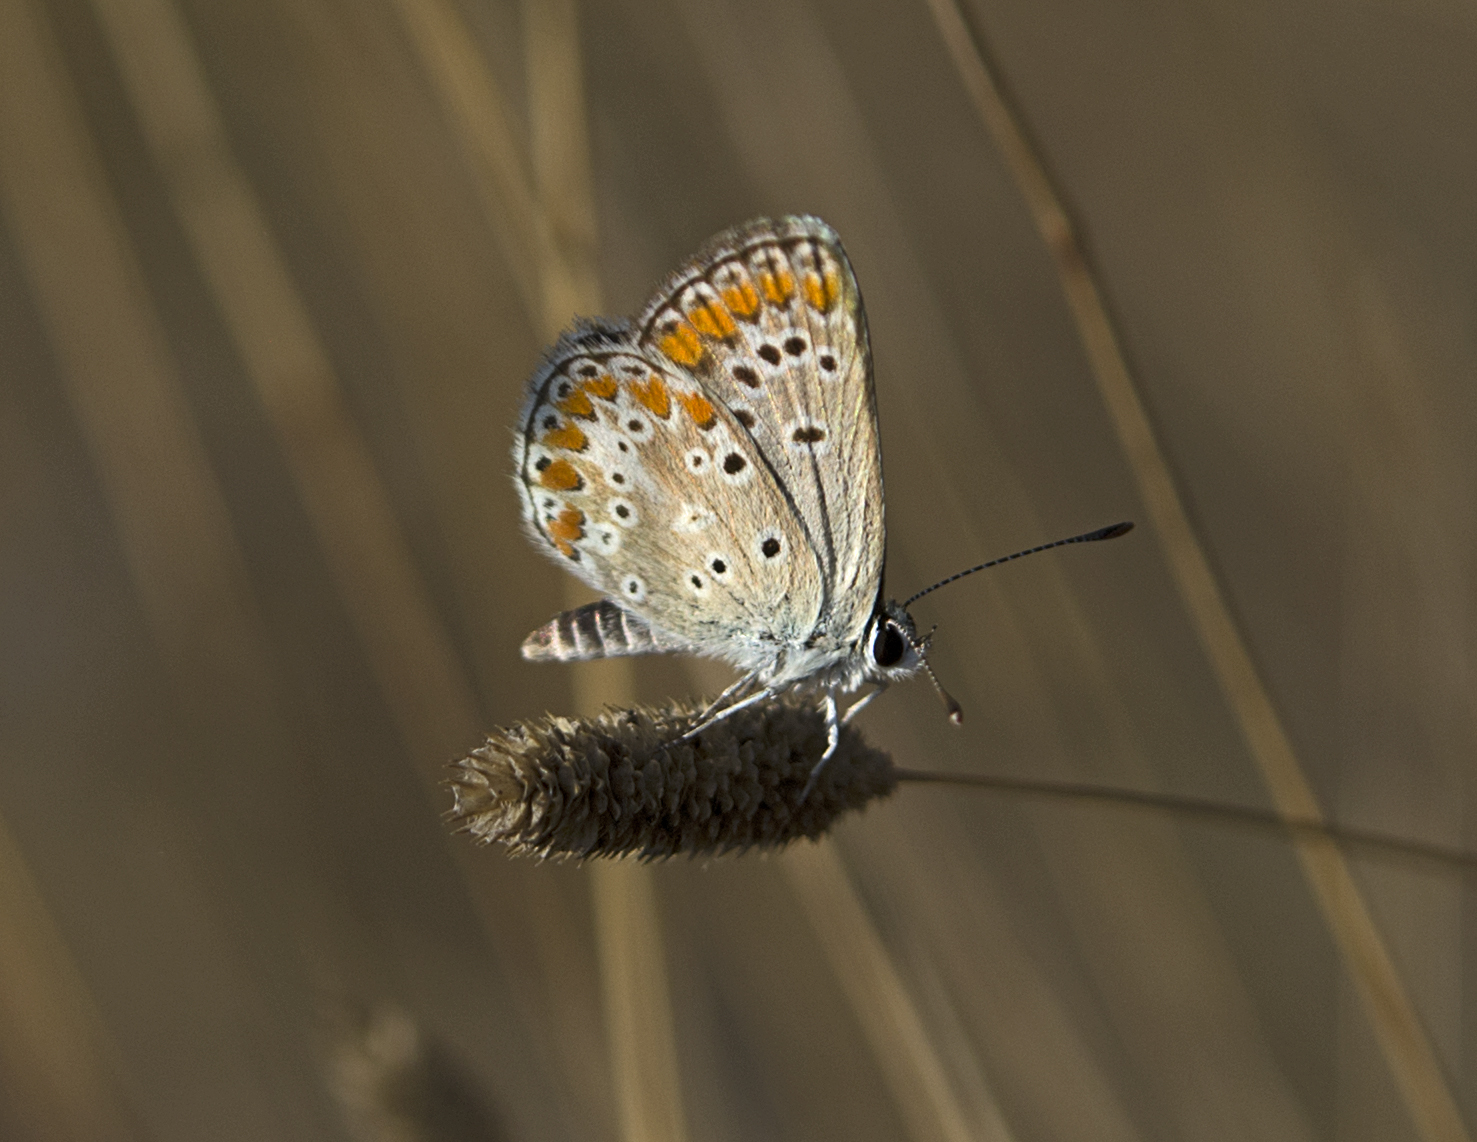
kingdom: Animalia
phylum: Arthropoda
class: Insecta
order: Lepidoptera
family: Lycaenidae
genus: Aricia
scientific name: Aricia agestis
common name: Brown argus
